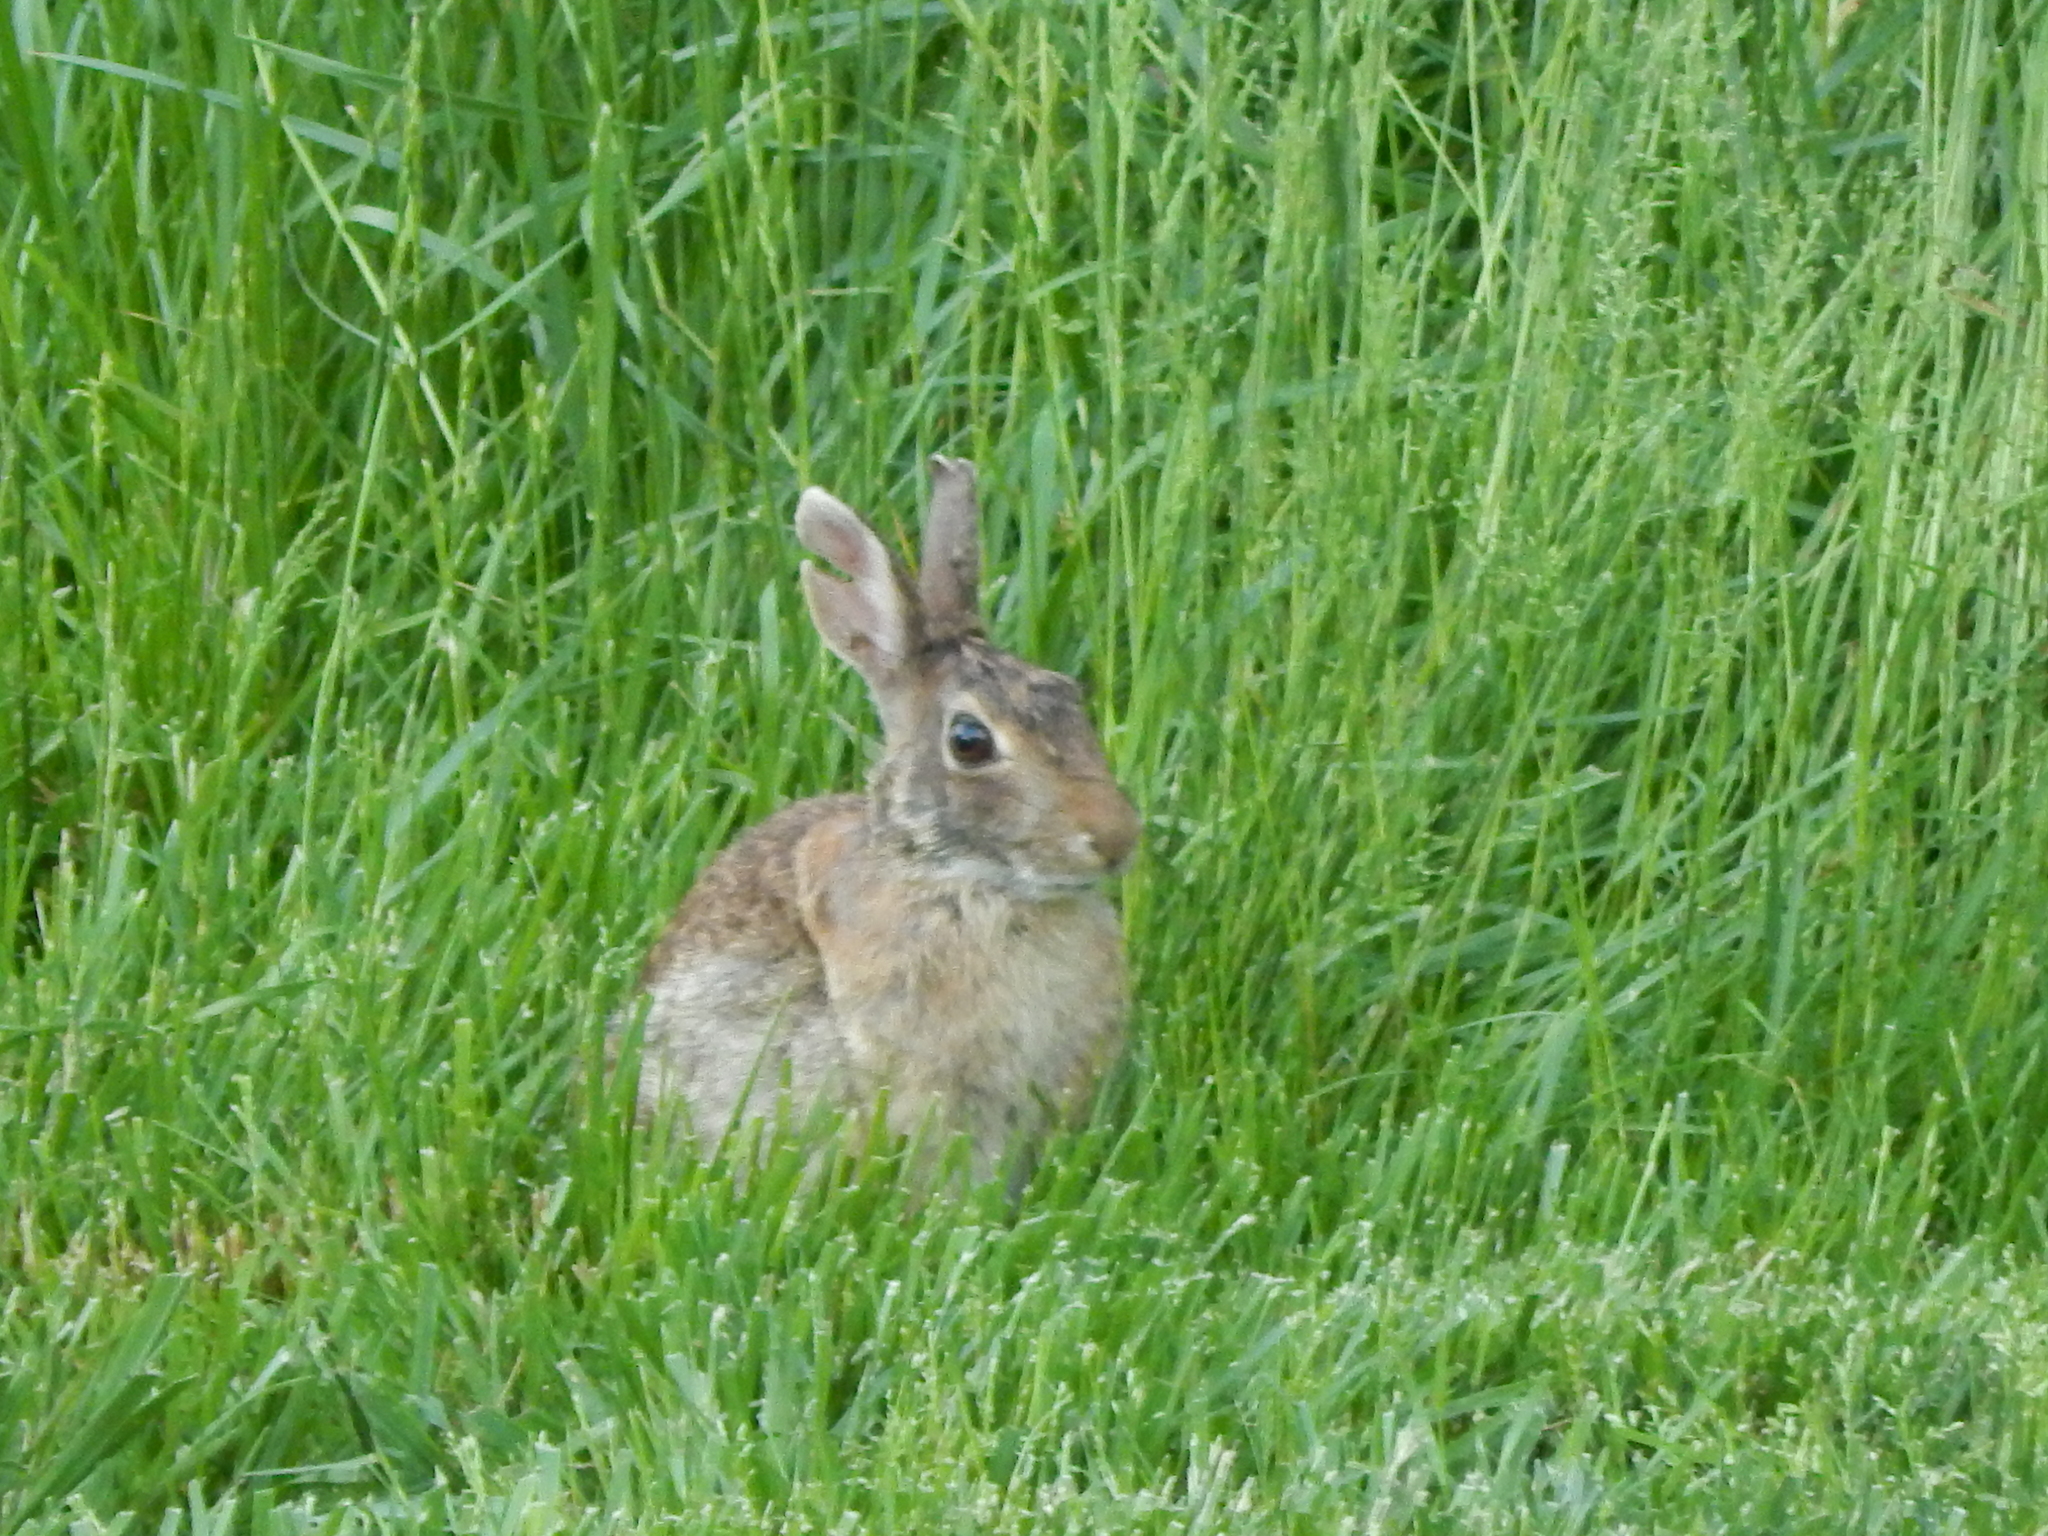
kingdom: Animalia
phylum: Chordata
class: Mammalia
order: Lagomorpha
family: Leporidae
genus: Sylvilagus
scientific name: Sylvilagus floridanus
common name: Eastern cottontail
